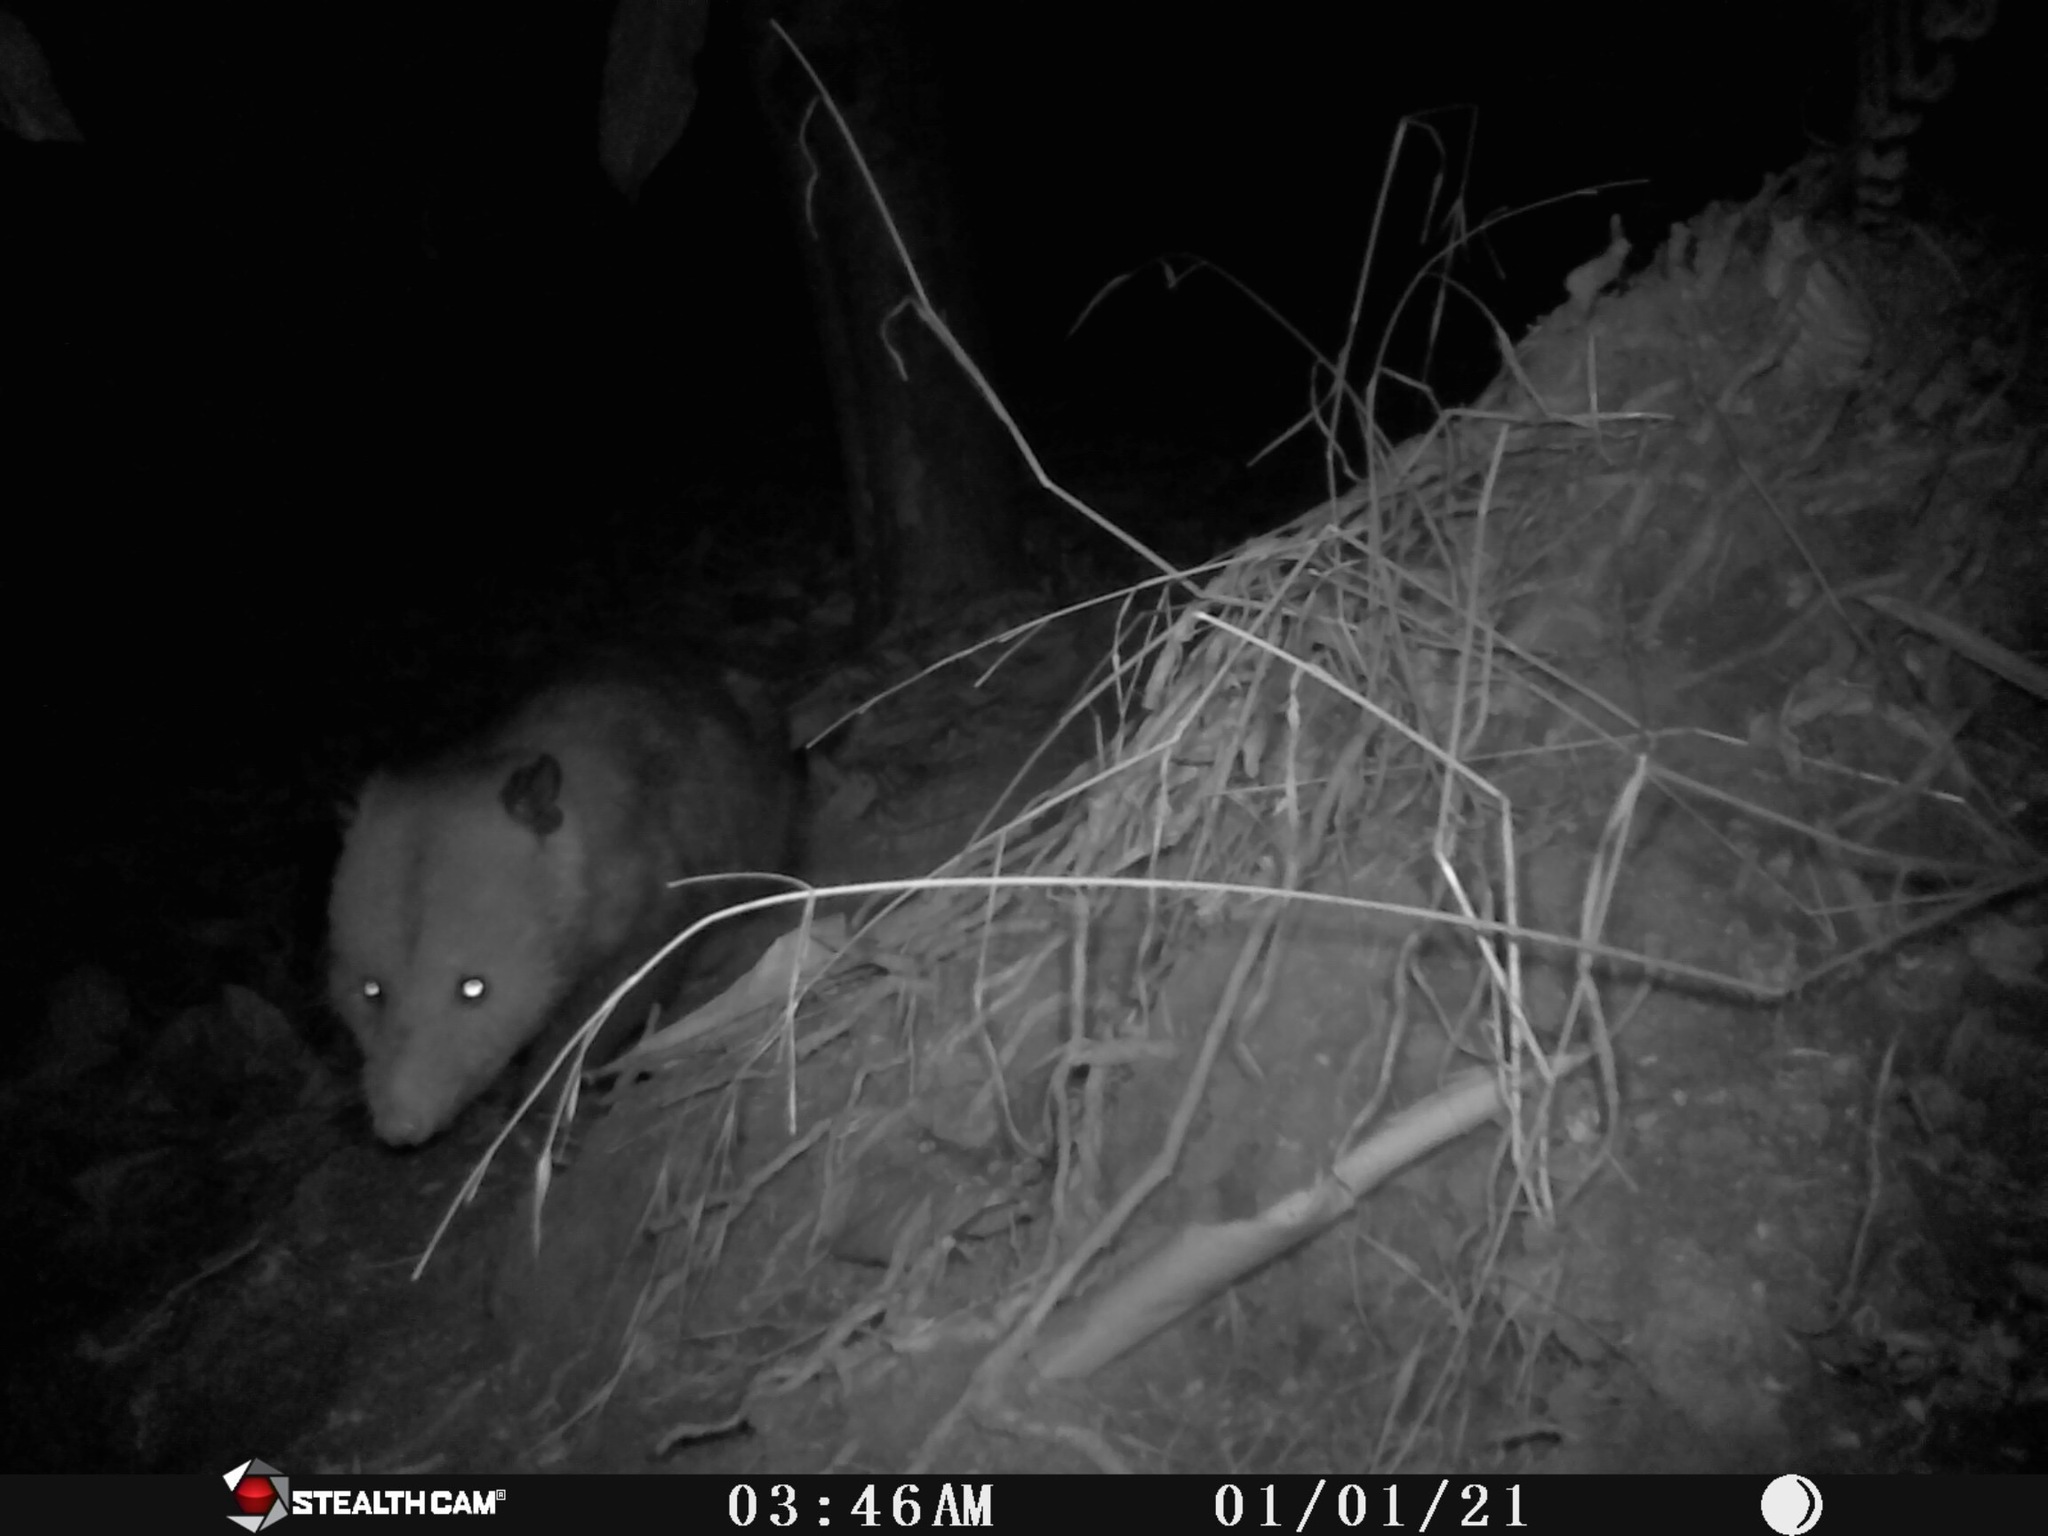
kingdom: Animalia
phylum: Chordata
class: Mammalia
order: Didelphimorphia
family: Didelphidae
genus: Didelphis
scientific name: Didelphis virginiana
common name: Virginia opossum
